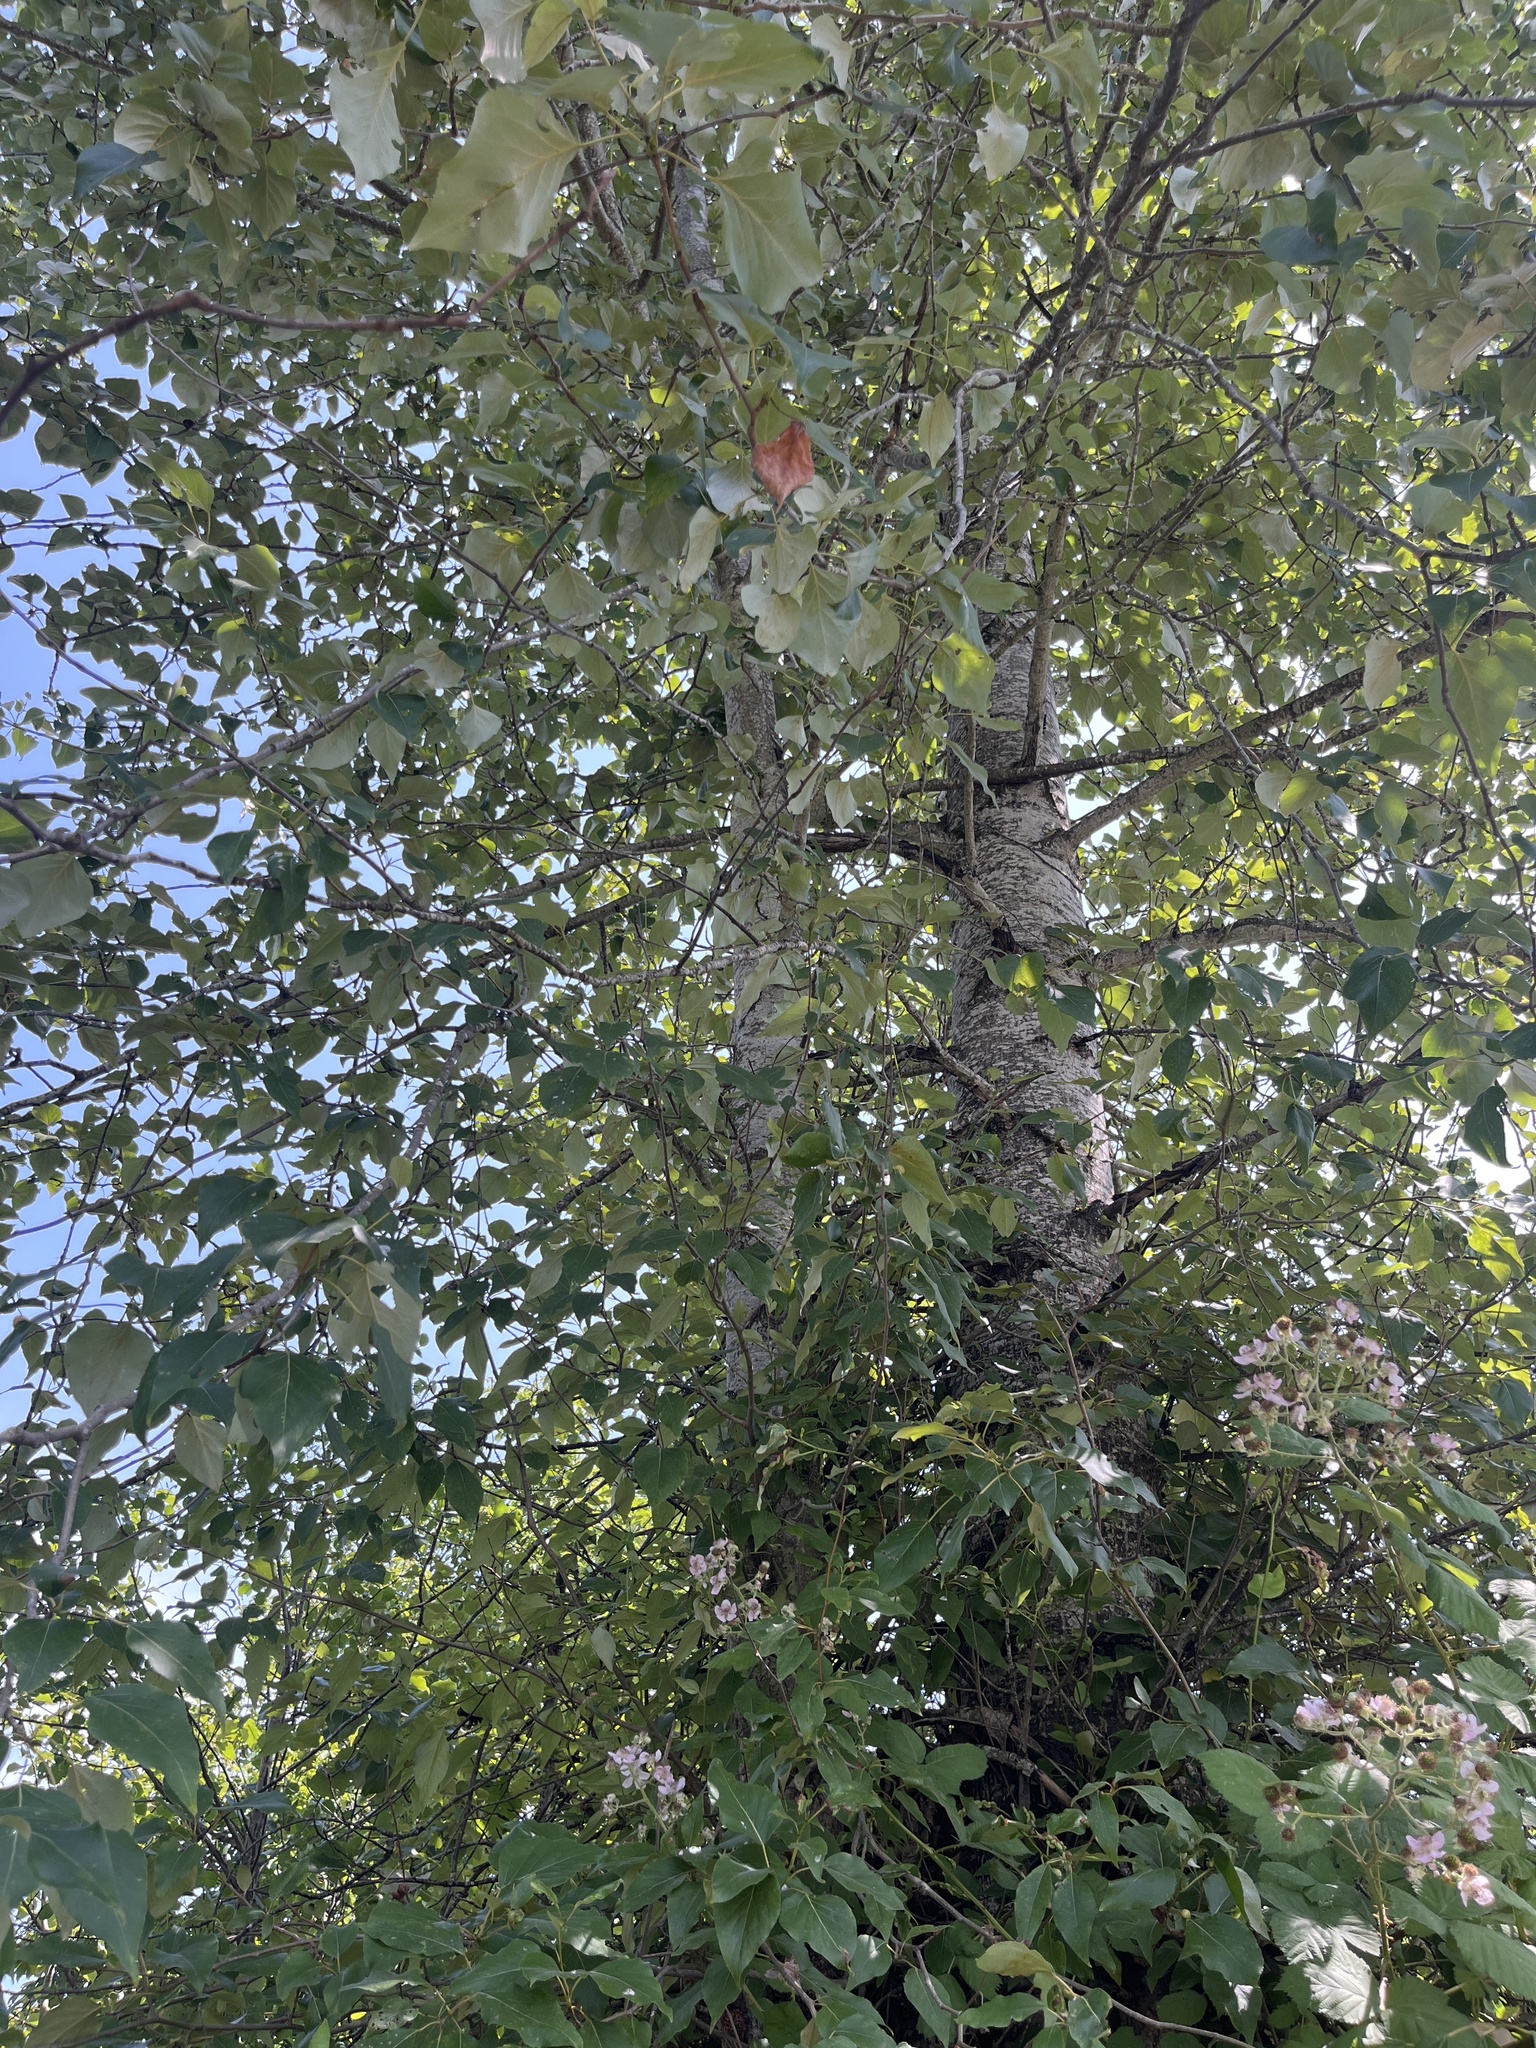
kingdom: Plantae
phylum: Tracheophyta
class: Magnoliopsida
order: Malpighiales
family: Salicaceae
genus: Populus
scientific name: Populus trichocarpa
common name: Black cottonwood
